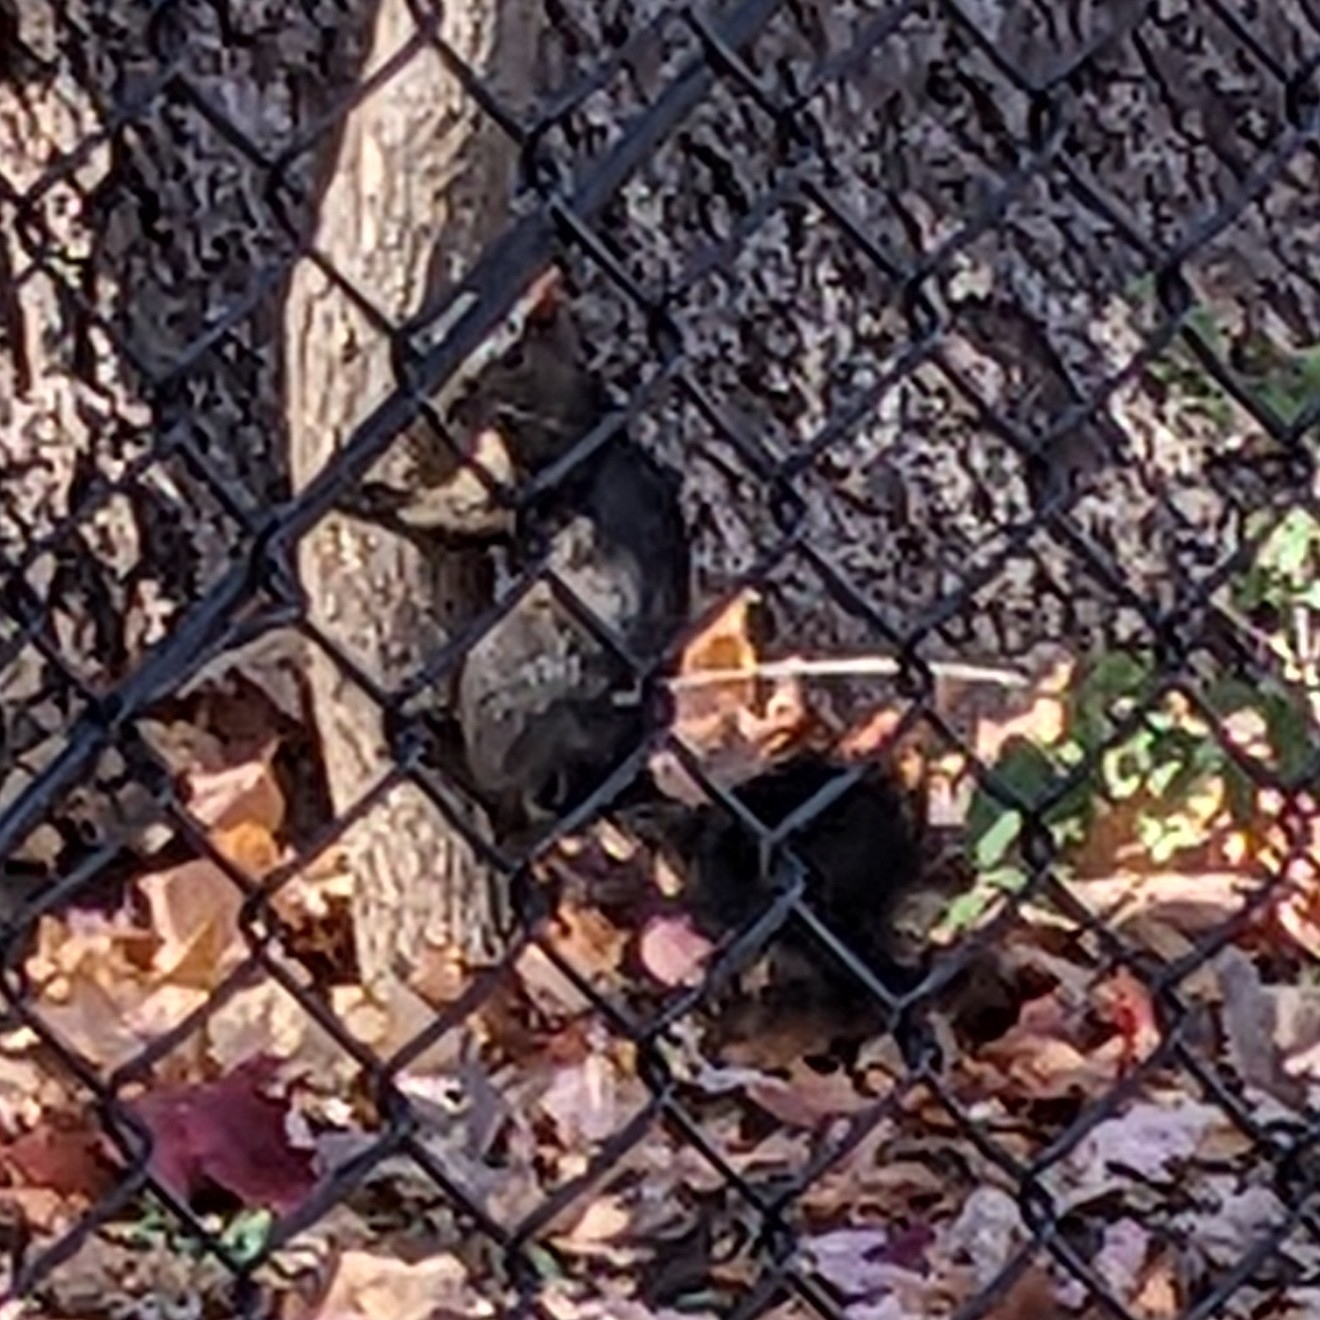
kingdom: Animalia
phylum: Chordata
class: Mammalia
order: Rodentia
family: Sciuridae
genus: Sciurus
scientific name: Sciurus carolinensis
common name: Eastern gray squirrel
